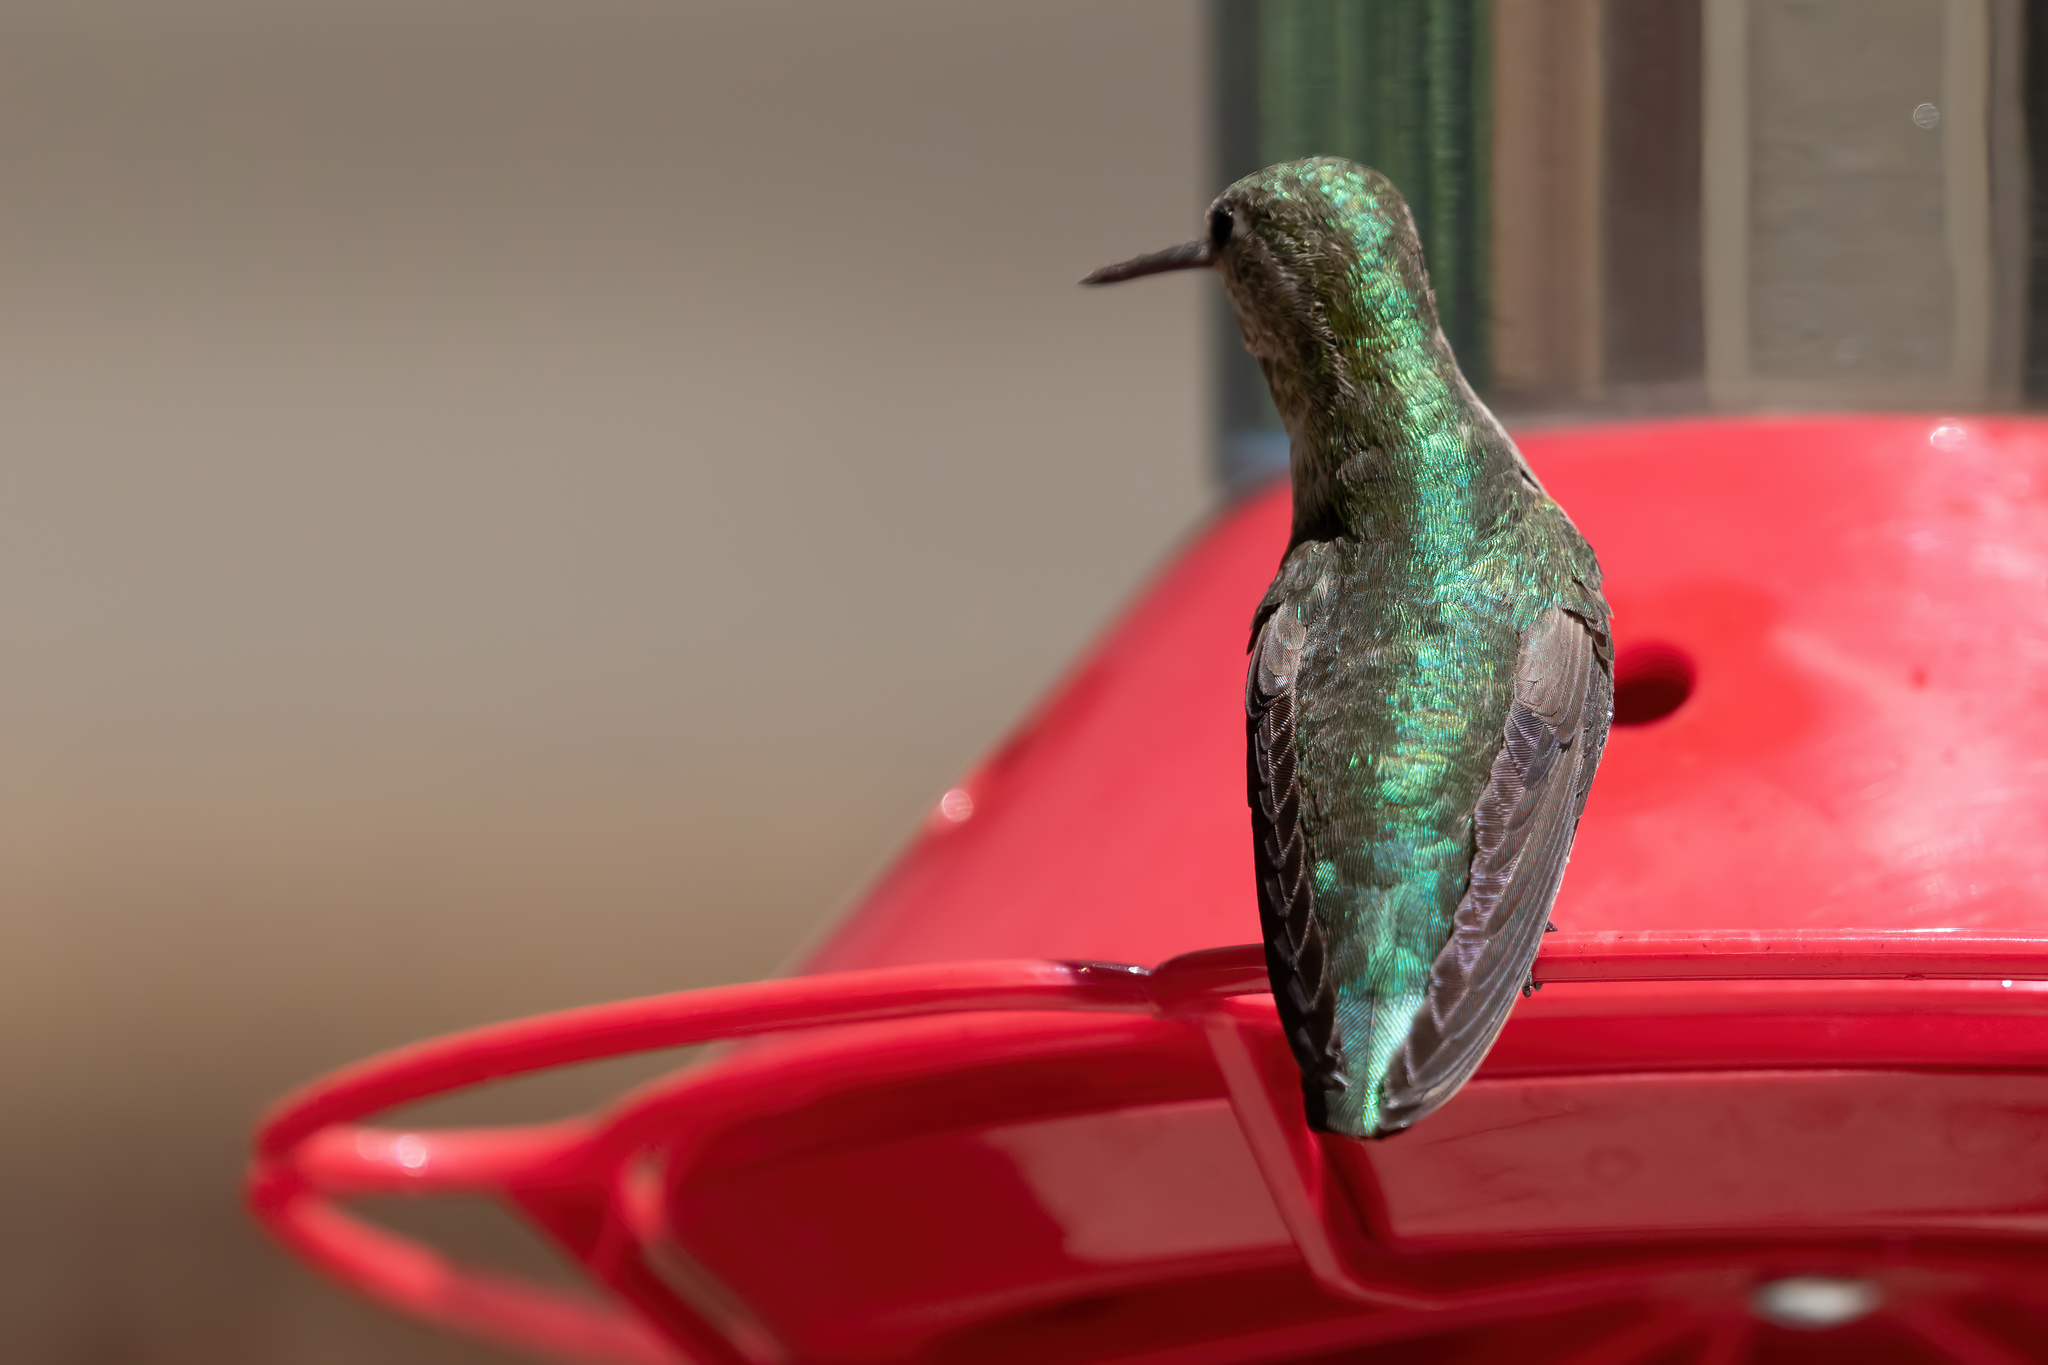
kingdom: Animalia
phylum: Chordata
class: Aves
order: Apodiformes
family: Trochilidae
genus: Calypte
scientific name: Calypte anna
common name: Anna's hummingbird
